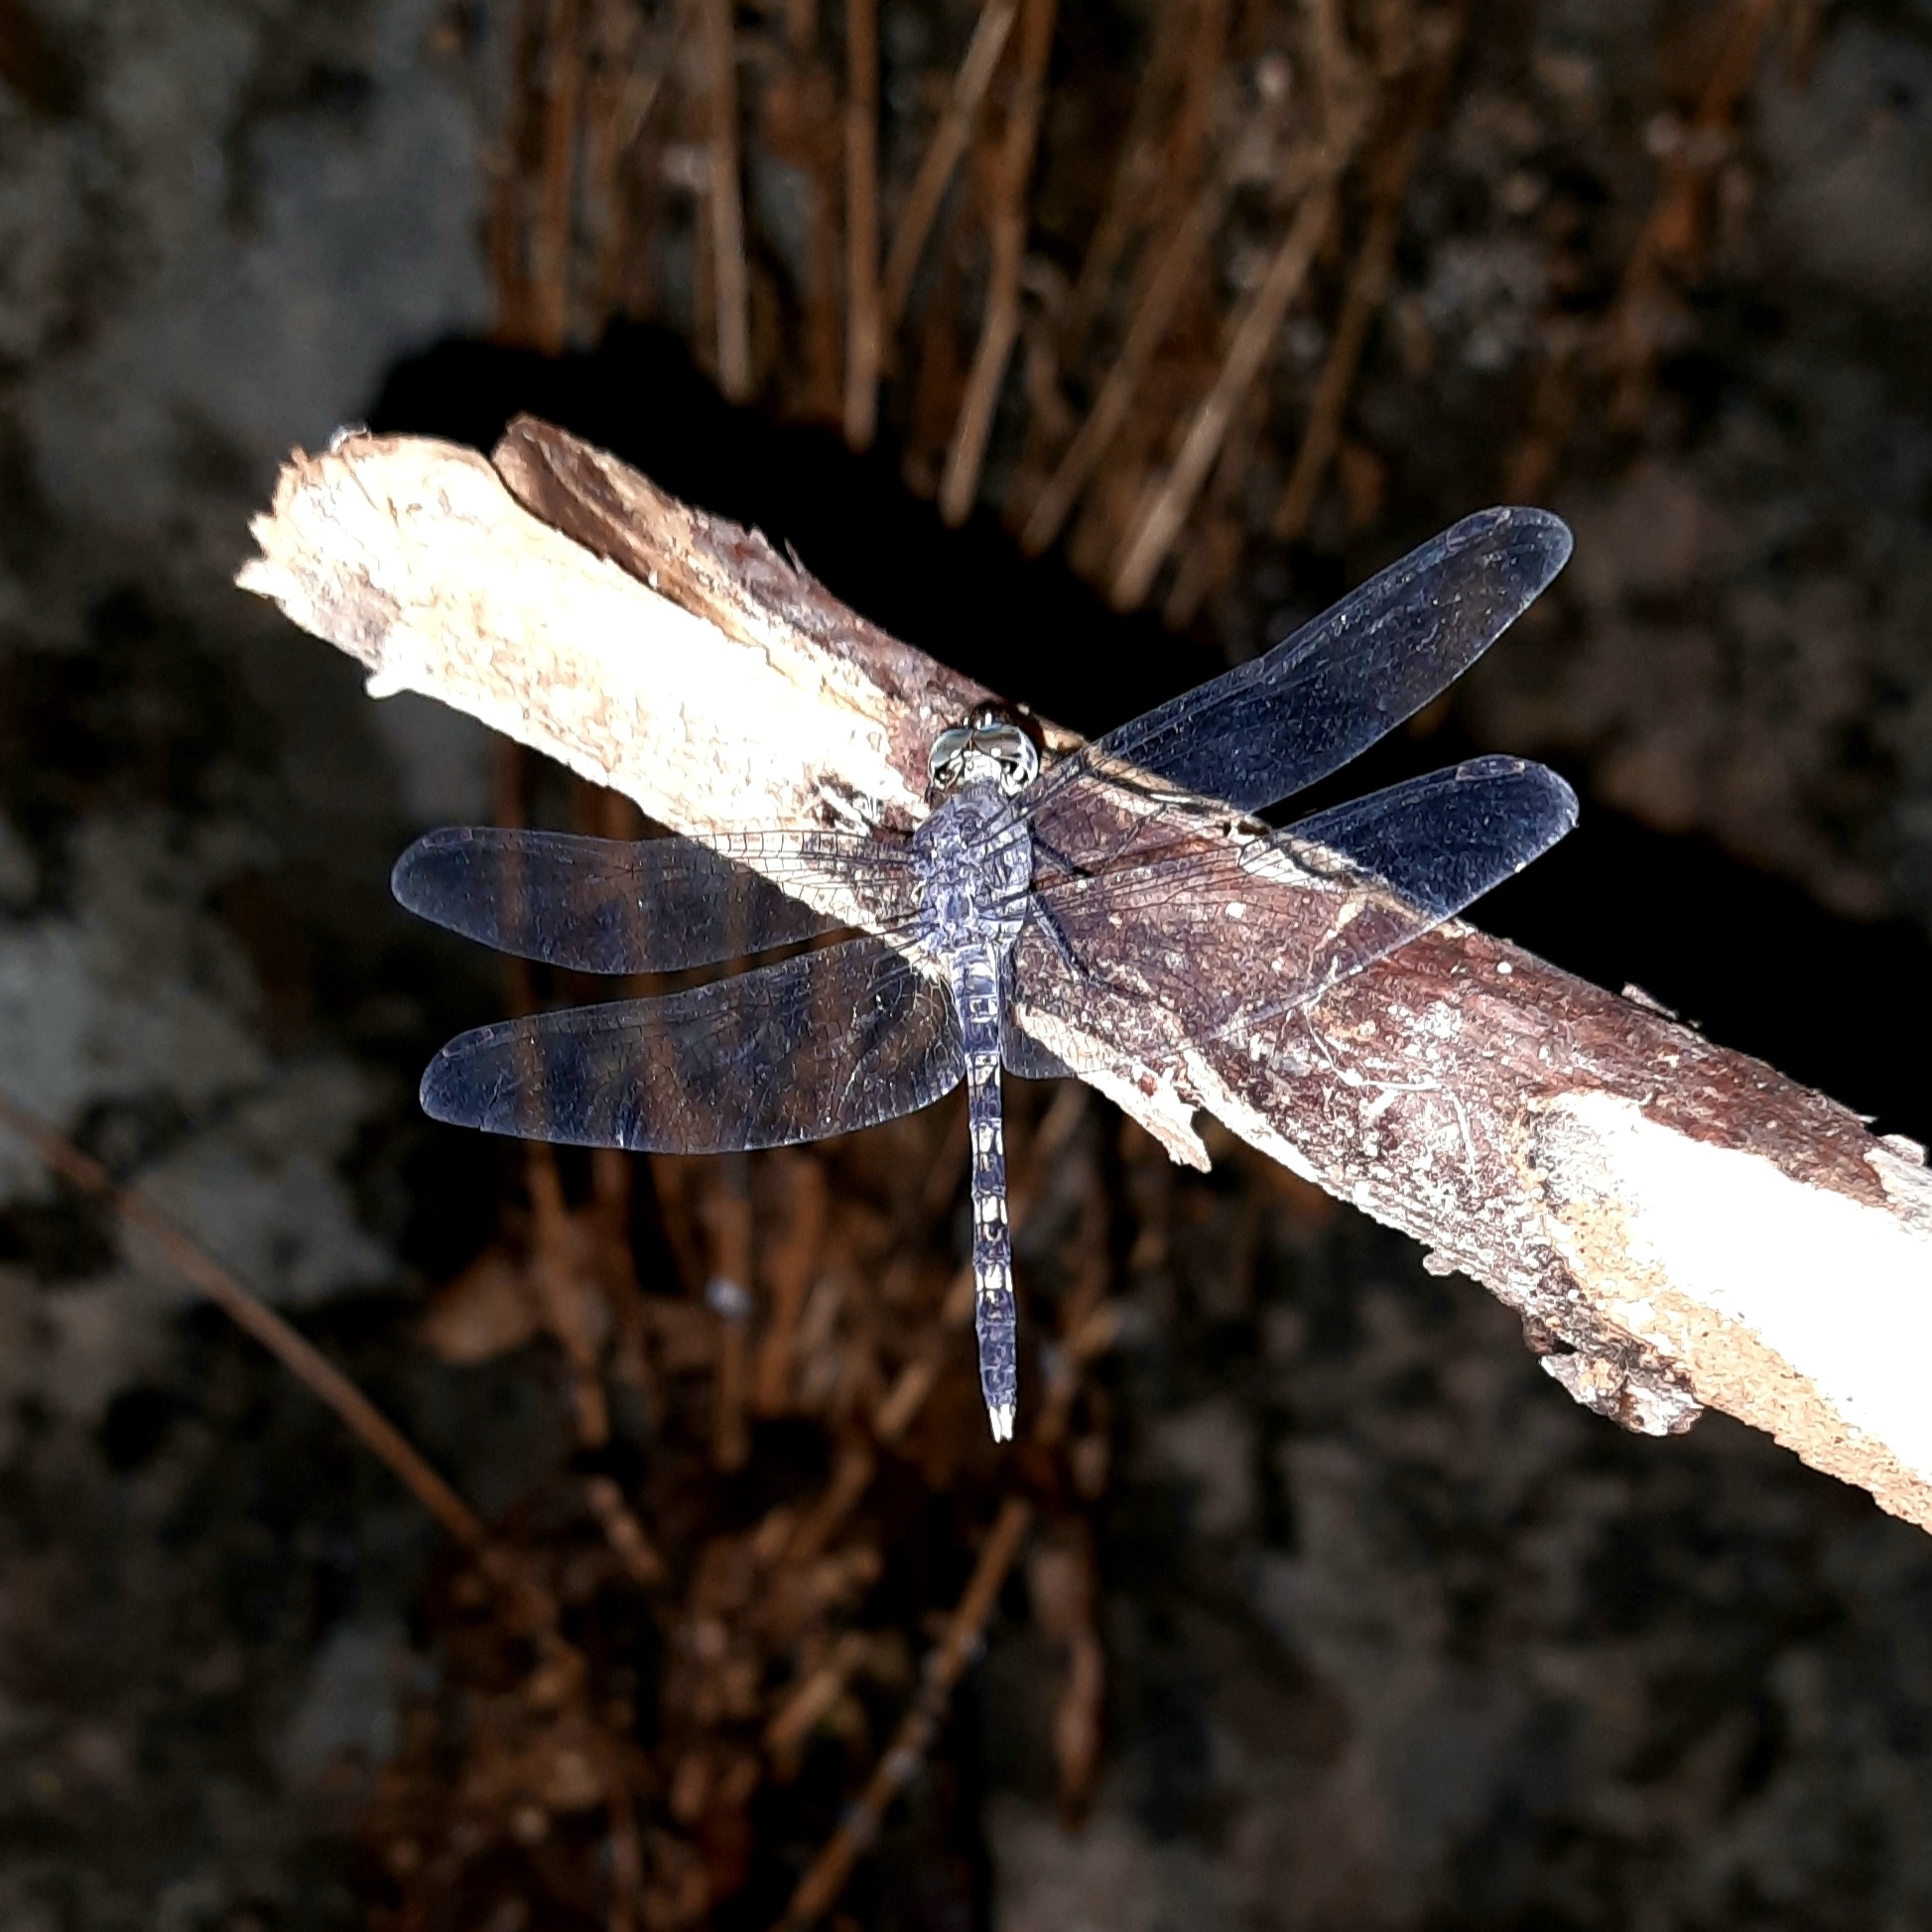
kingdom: Animalia
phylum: Arthropoda
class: Insecta
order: Odonata
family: Libellulidae
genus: Bradinopyga
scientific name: Bradinopyga geminata
